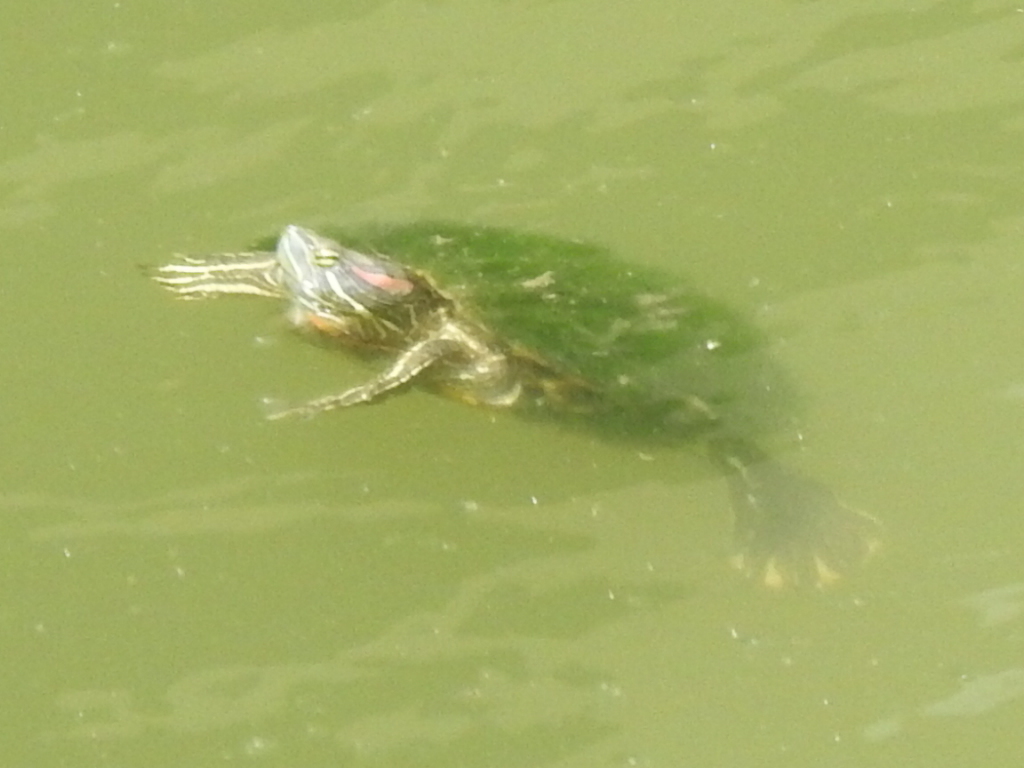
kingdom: Animalia
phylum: Chordata
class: Testudines
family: Emydidae
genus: Trachemys
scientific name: Trachemys scripta
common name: Slider
